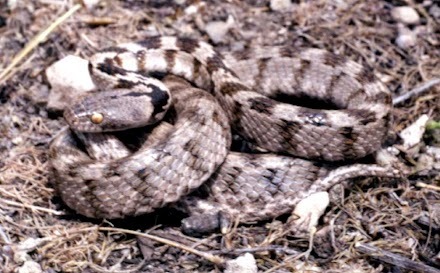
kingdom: Animalia
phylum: Chordata
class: Squamata
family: Colubridae
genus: Telescopus
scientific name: Telescopus fallax
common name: Cat snake
